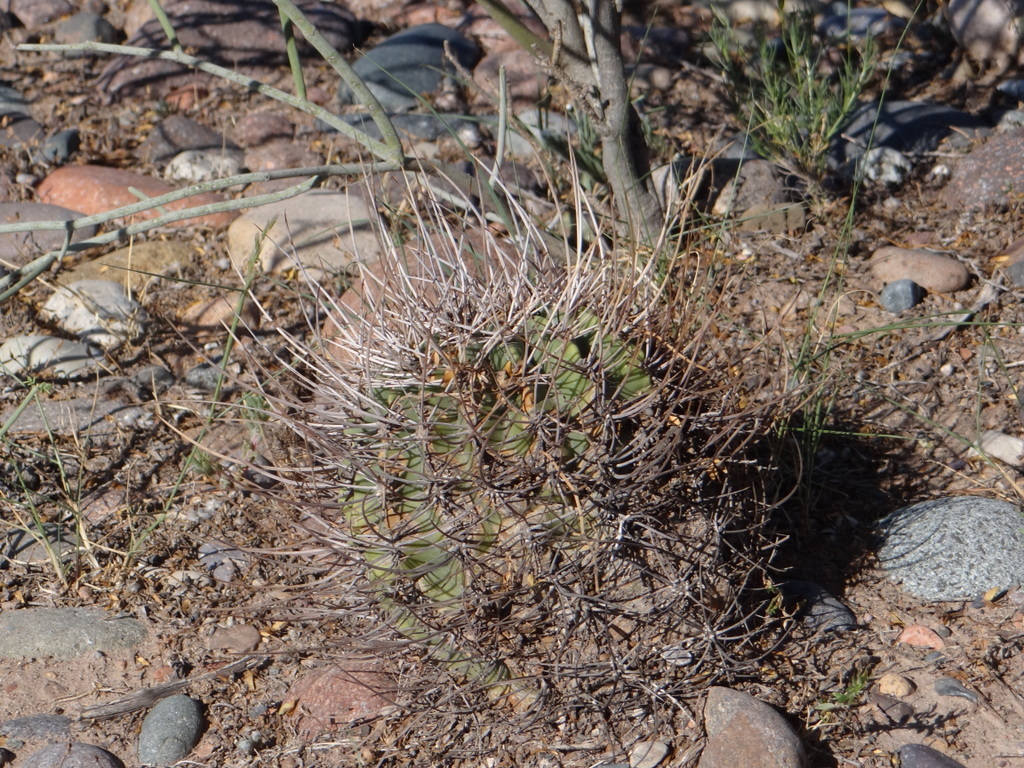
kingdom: Plantae
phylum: Tracheophyta
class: Magnoliopsida
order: Caryophyllales
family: Cactaceae
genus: Acanthocalycium
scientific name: Acanthocalycium leucanthum
